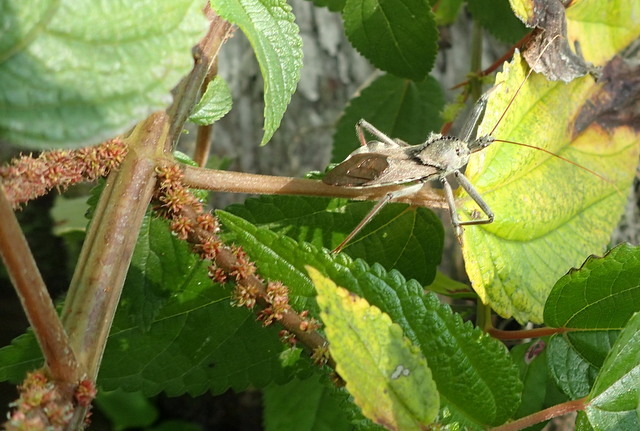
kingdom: Animalia
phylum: Arthropoda
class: Insecta
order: Hemiptera
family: Reduviidae
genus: Arilus
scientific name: Arilus cristatus
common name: North american wheel bug
